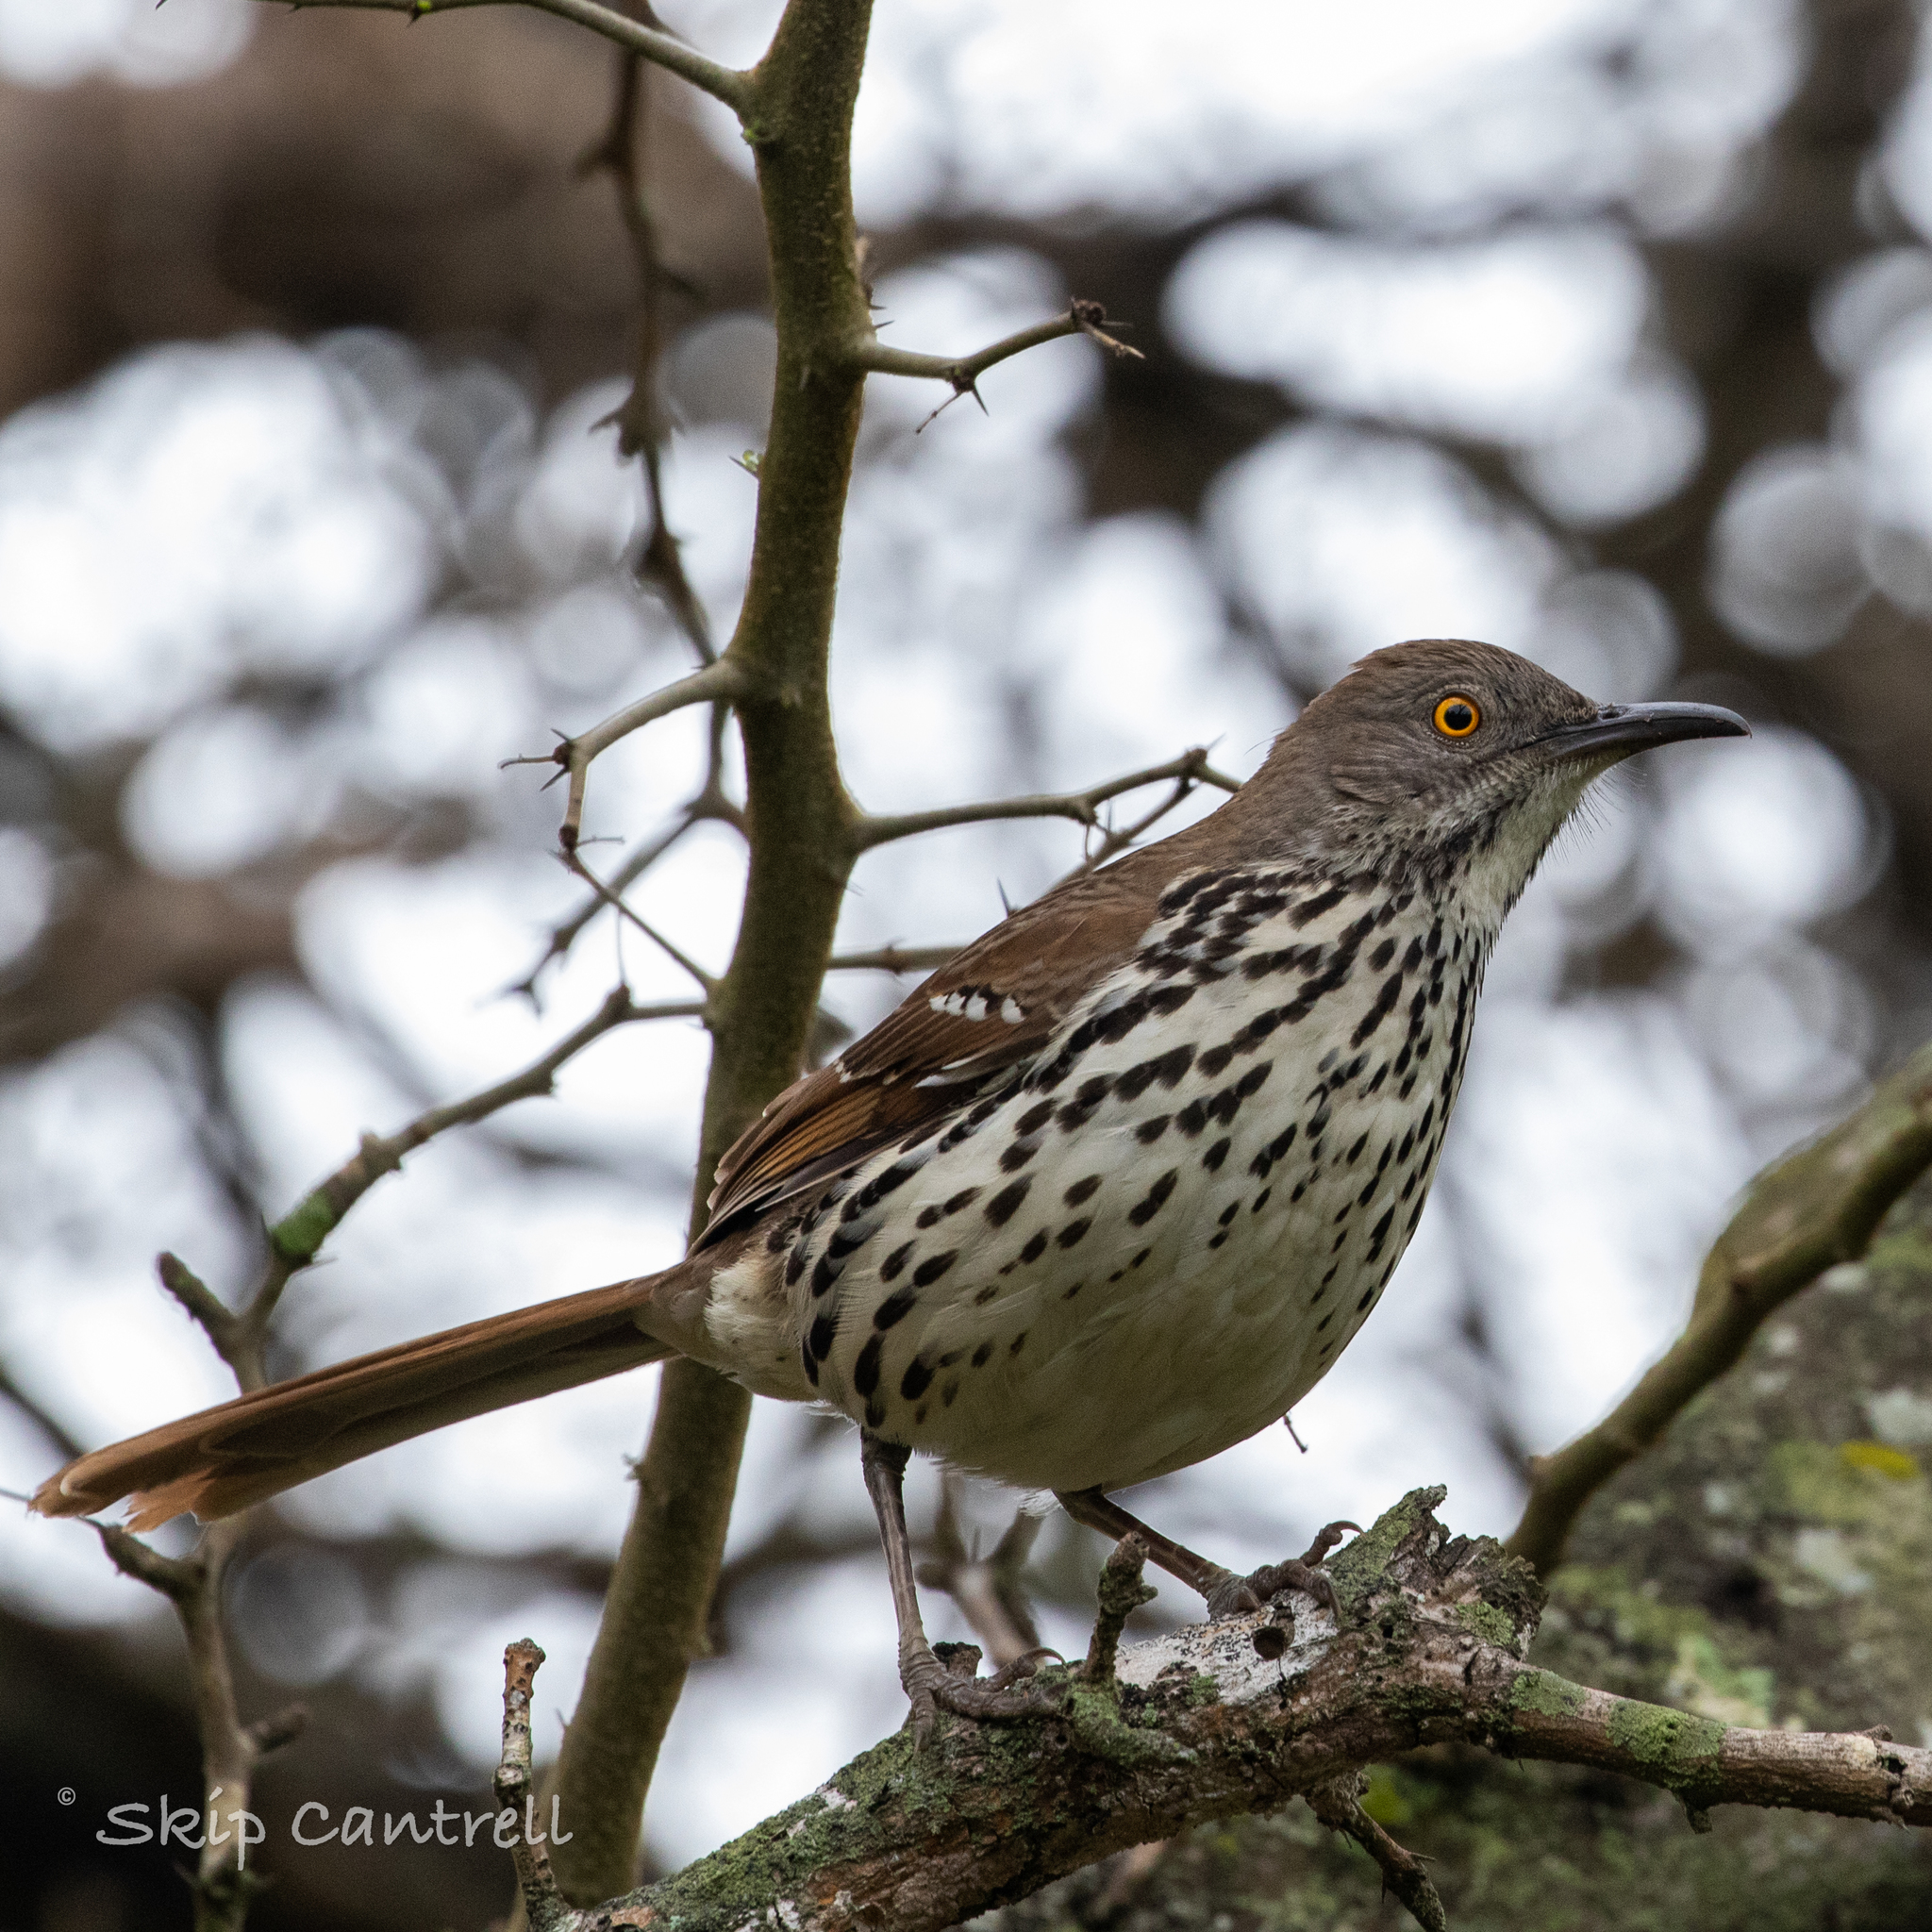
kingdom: Animalia
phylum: Chordata
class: Aves
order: Passeriformes
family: Mimidae
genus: Toxostoma
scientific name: Toxostoma longirostre
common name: Long-billed thrasher
